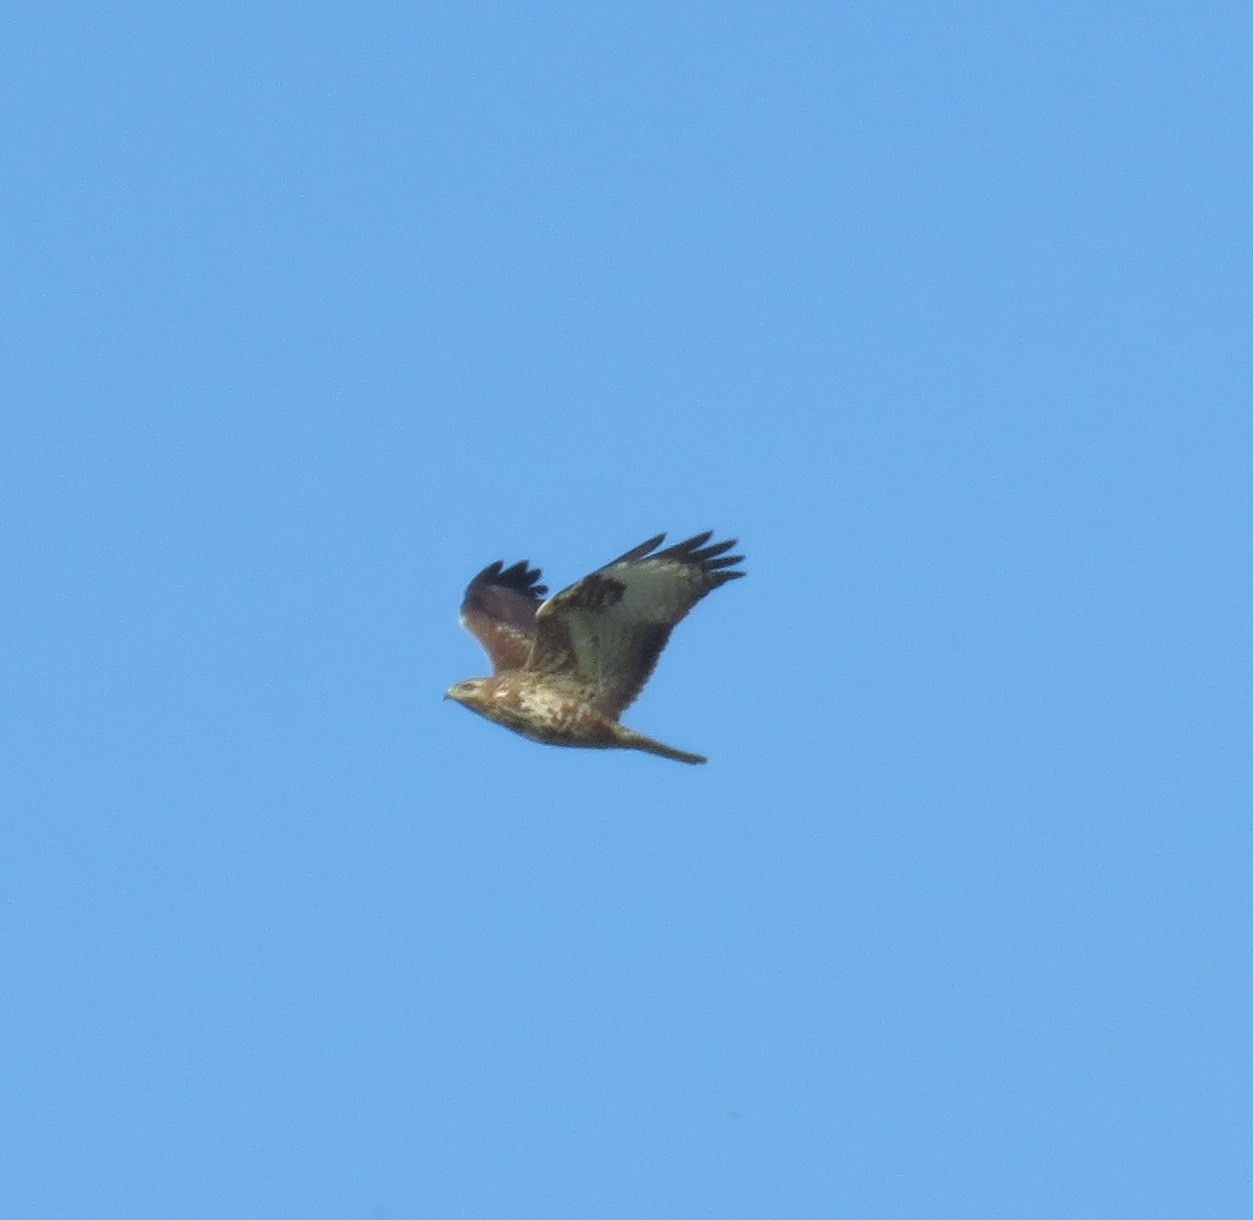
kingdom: Animalia
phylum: Chordata
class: Aves
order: Accipitriformes
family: Accipitridae
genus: Buteo
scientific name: Buteo buteo
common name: Common buzzard
